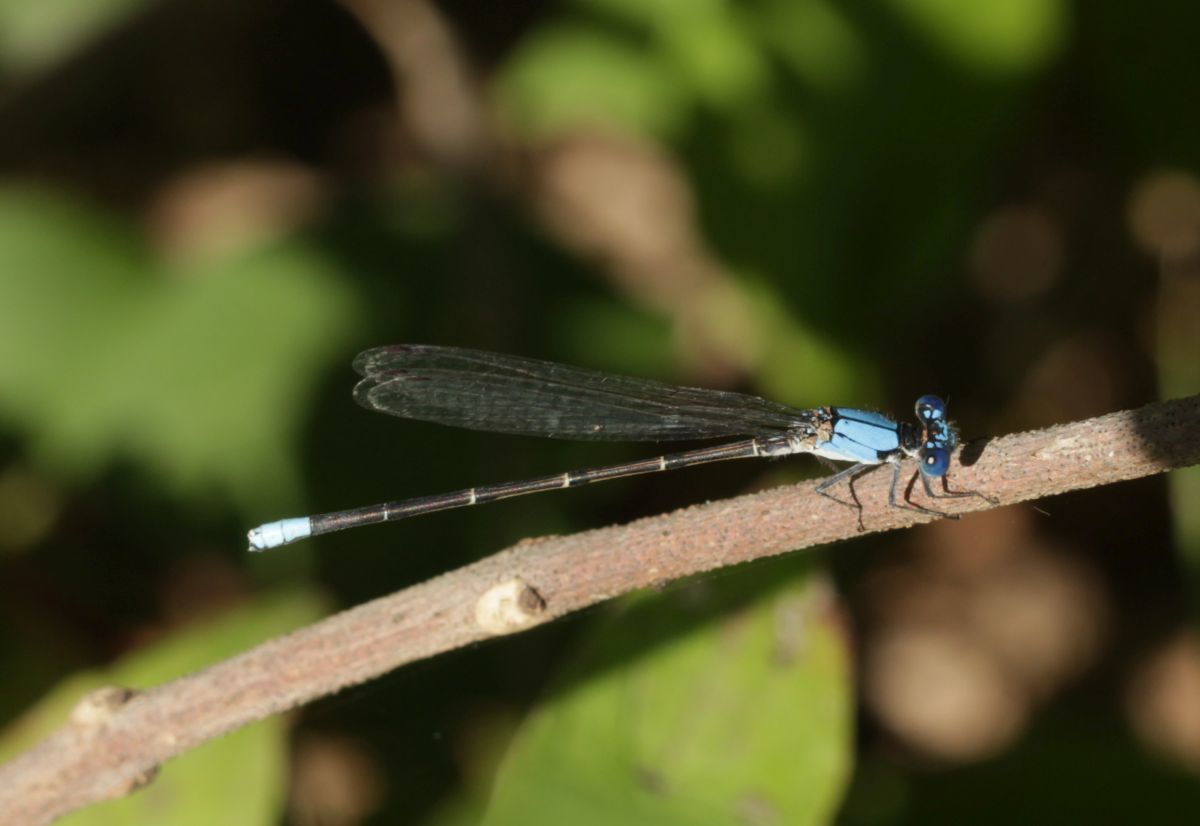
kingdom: Animalia
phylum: Arthropoda
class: Insecta
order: Odonata
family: Coenagrionidae
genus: Argia
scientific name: Argia apicalis
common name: Blue-fronted dancer
